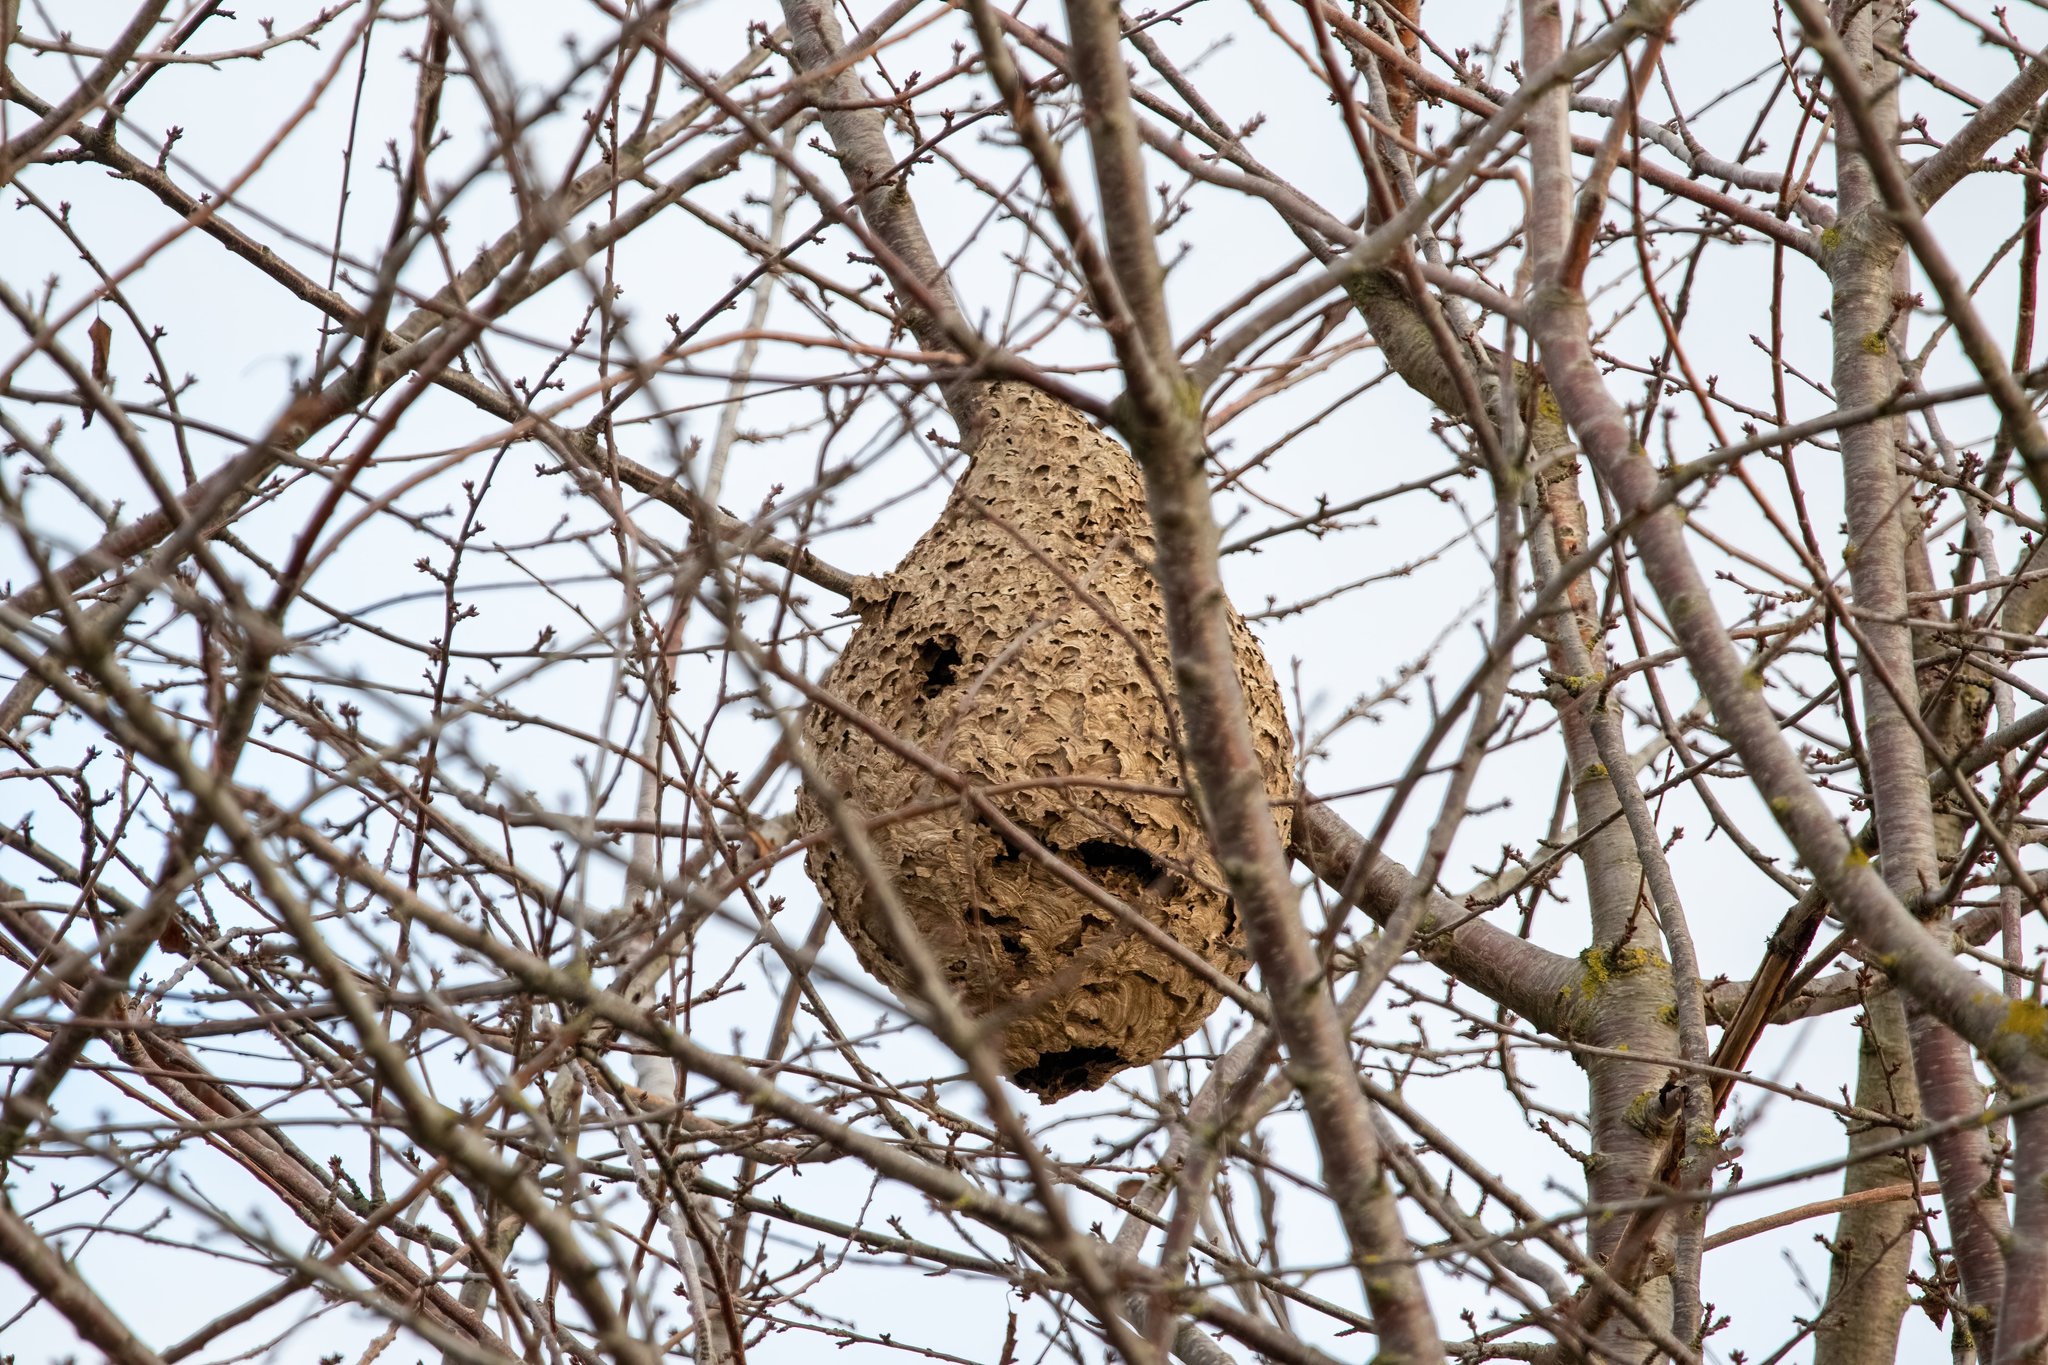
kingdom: Animalia
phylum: Arthropoda
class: Insecta
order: Hymenoptera
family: Vespidae
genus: Vespa
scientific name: Vespa velutina
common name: Asian hornet
